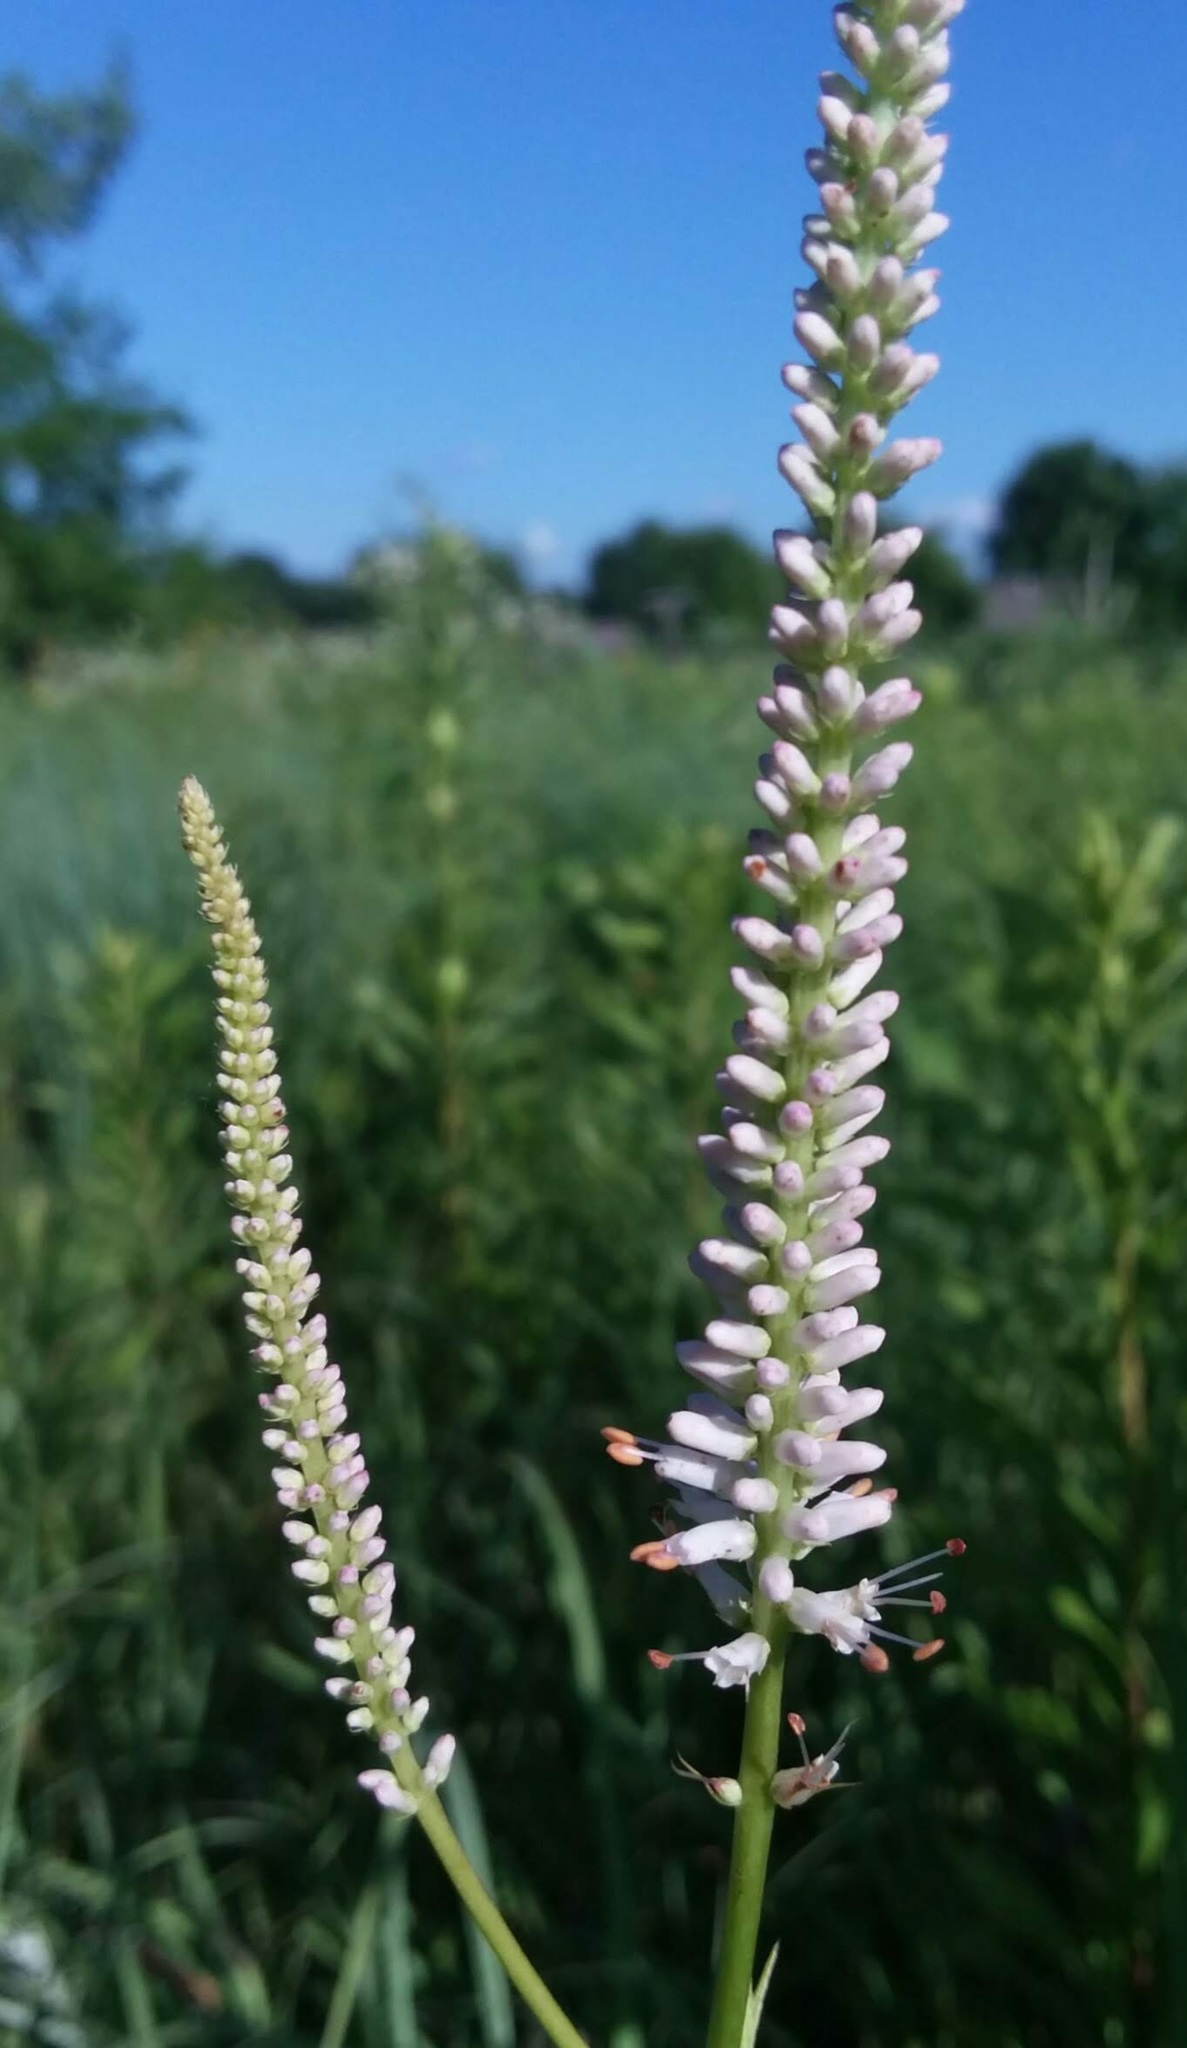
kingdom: Plantae
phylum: Tracheophyta
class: Magnoliopsida
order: Lamiales
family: Plantaginaceae
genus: Veronicastrum
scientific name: Veronicastrum virginicum
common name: Blackroot
